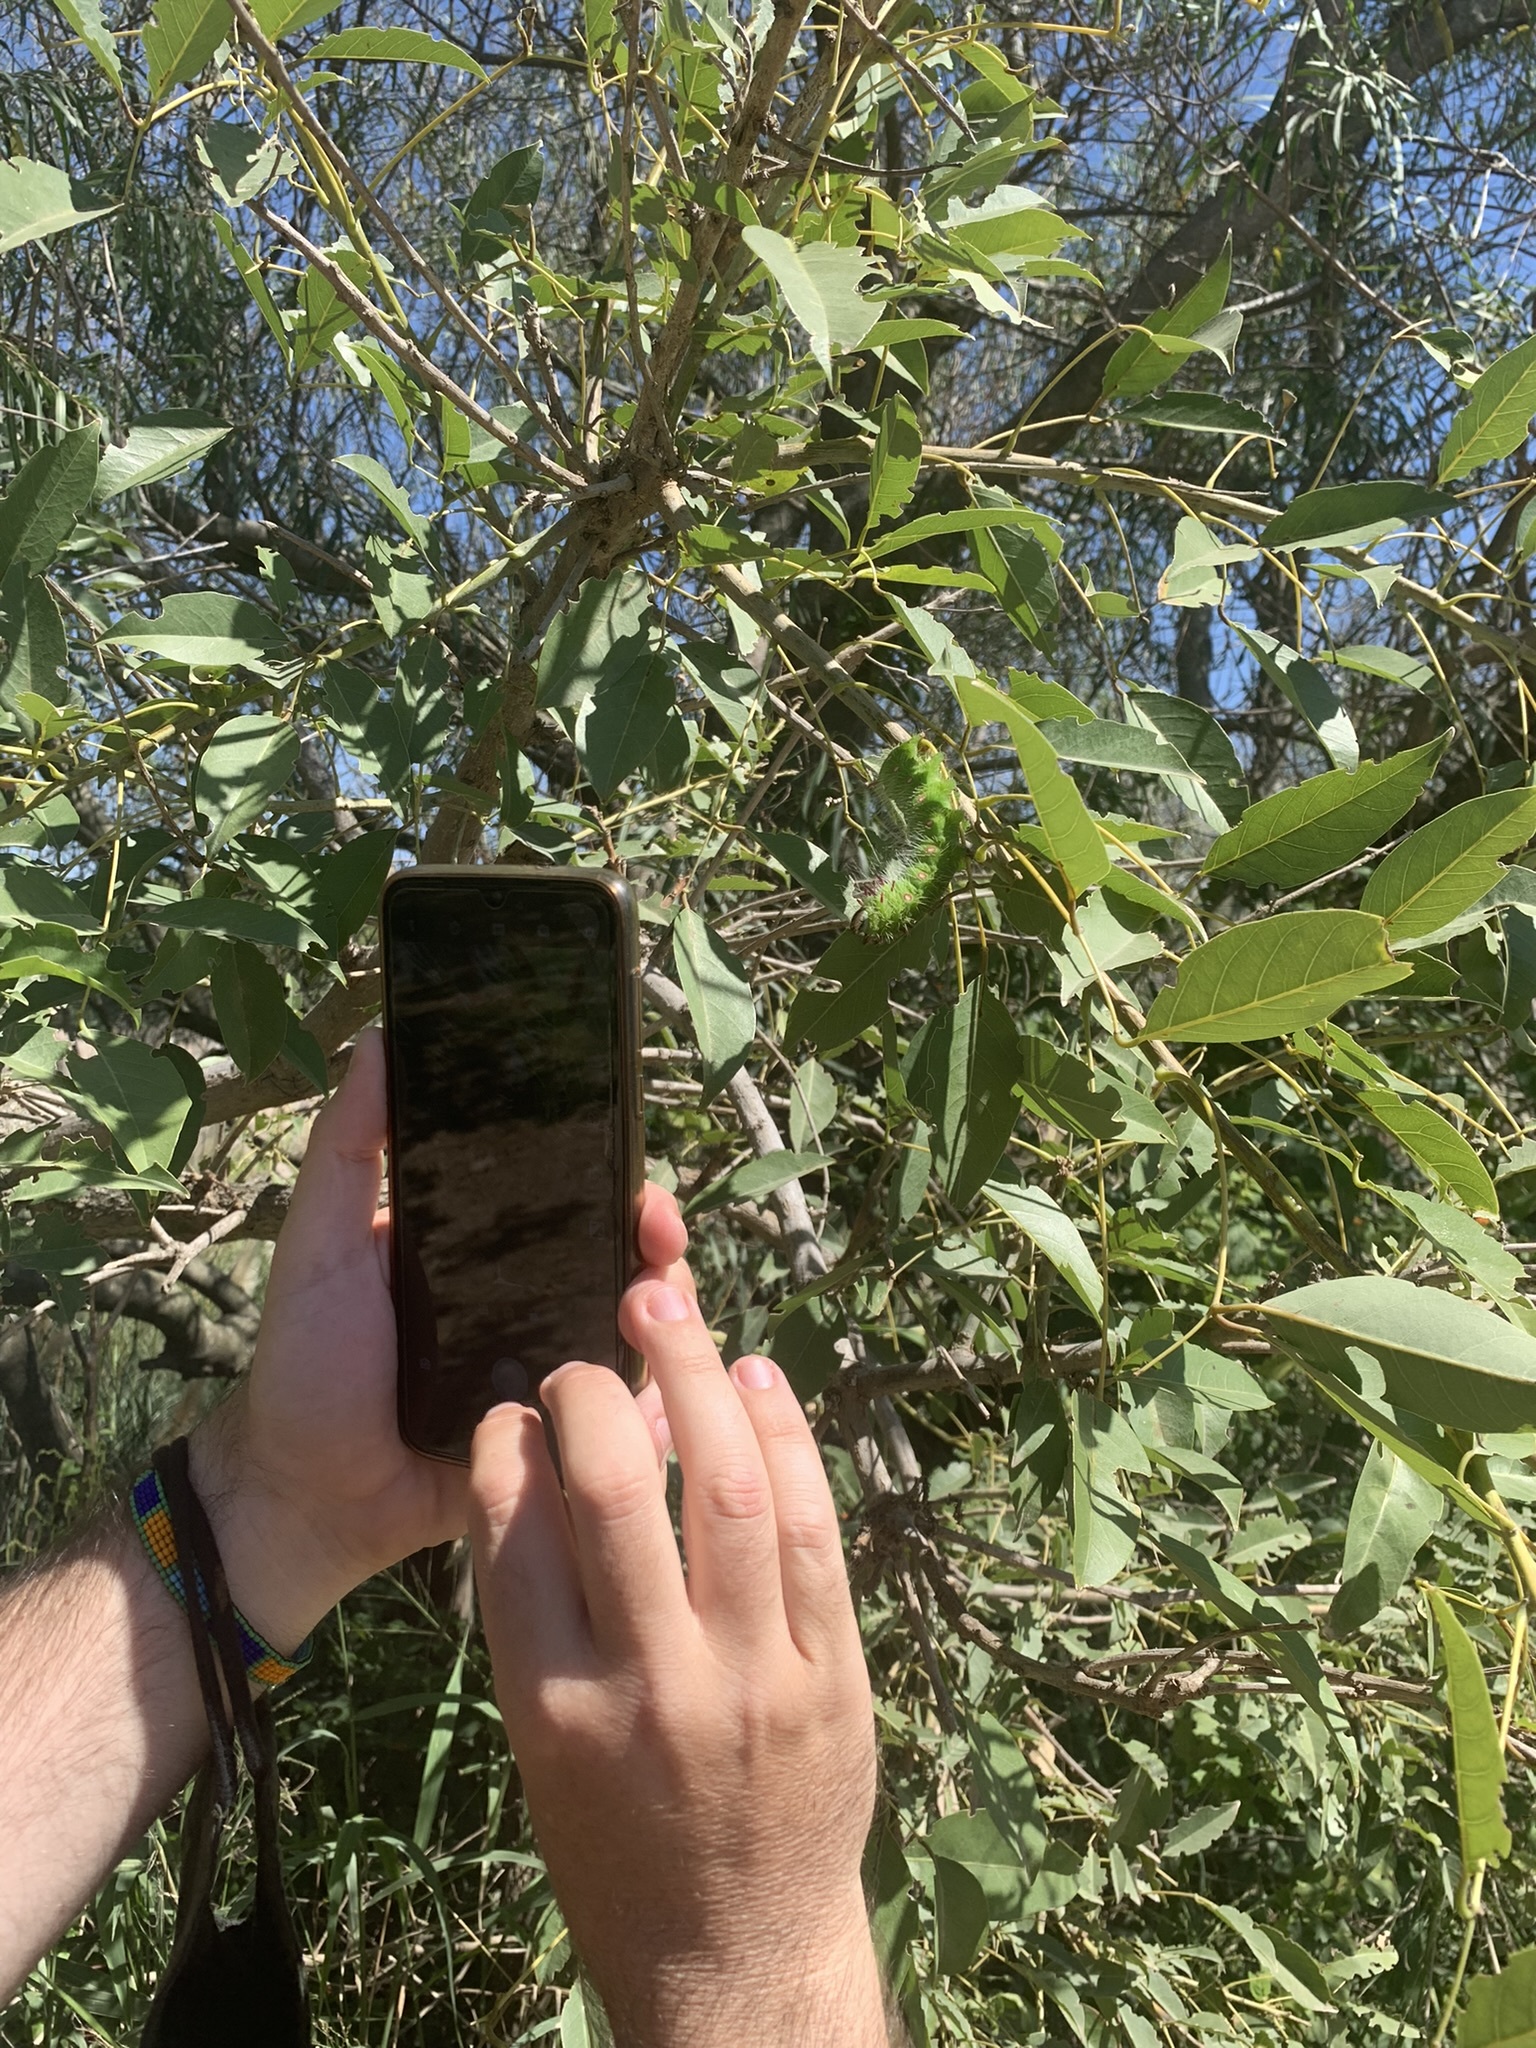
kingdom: Plantae
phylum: Tracheophyta
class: Magnoliopsida
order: Fabales
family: Fabaceae
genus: Erythrina
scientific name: Erythrina crista-galli
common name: Cockspur coral tree
